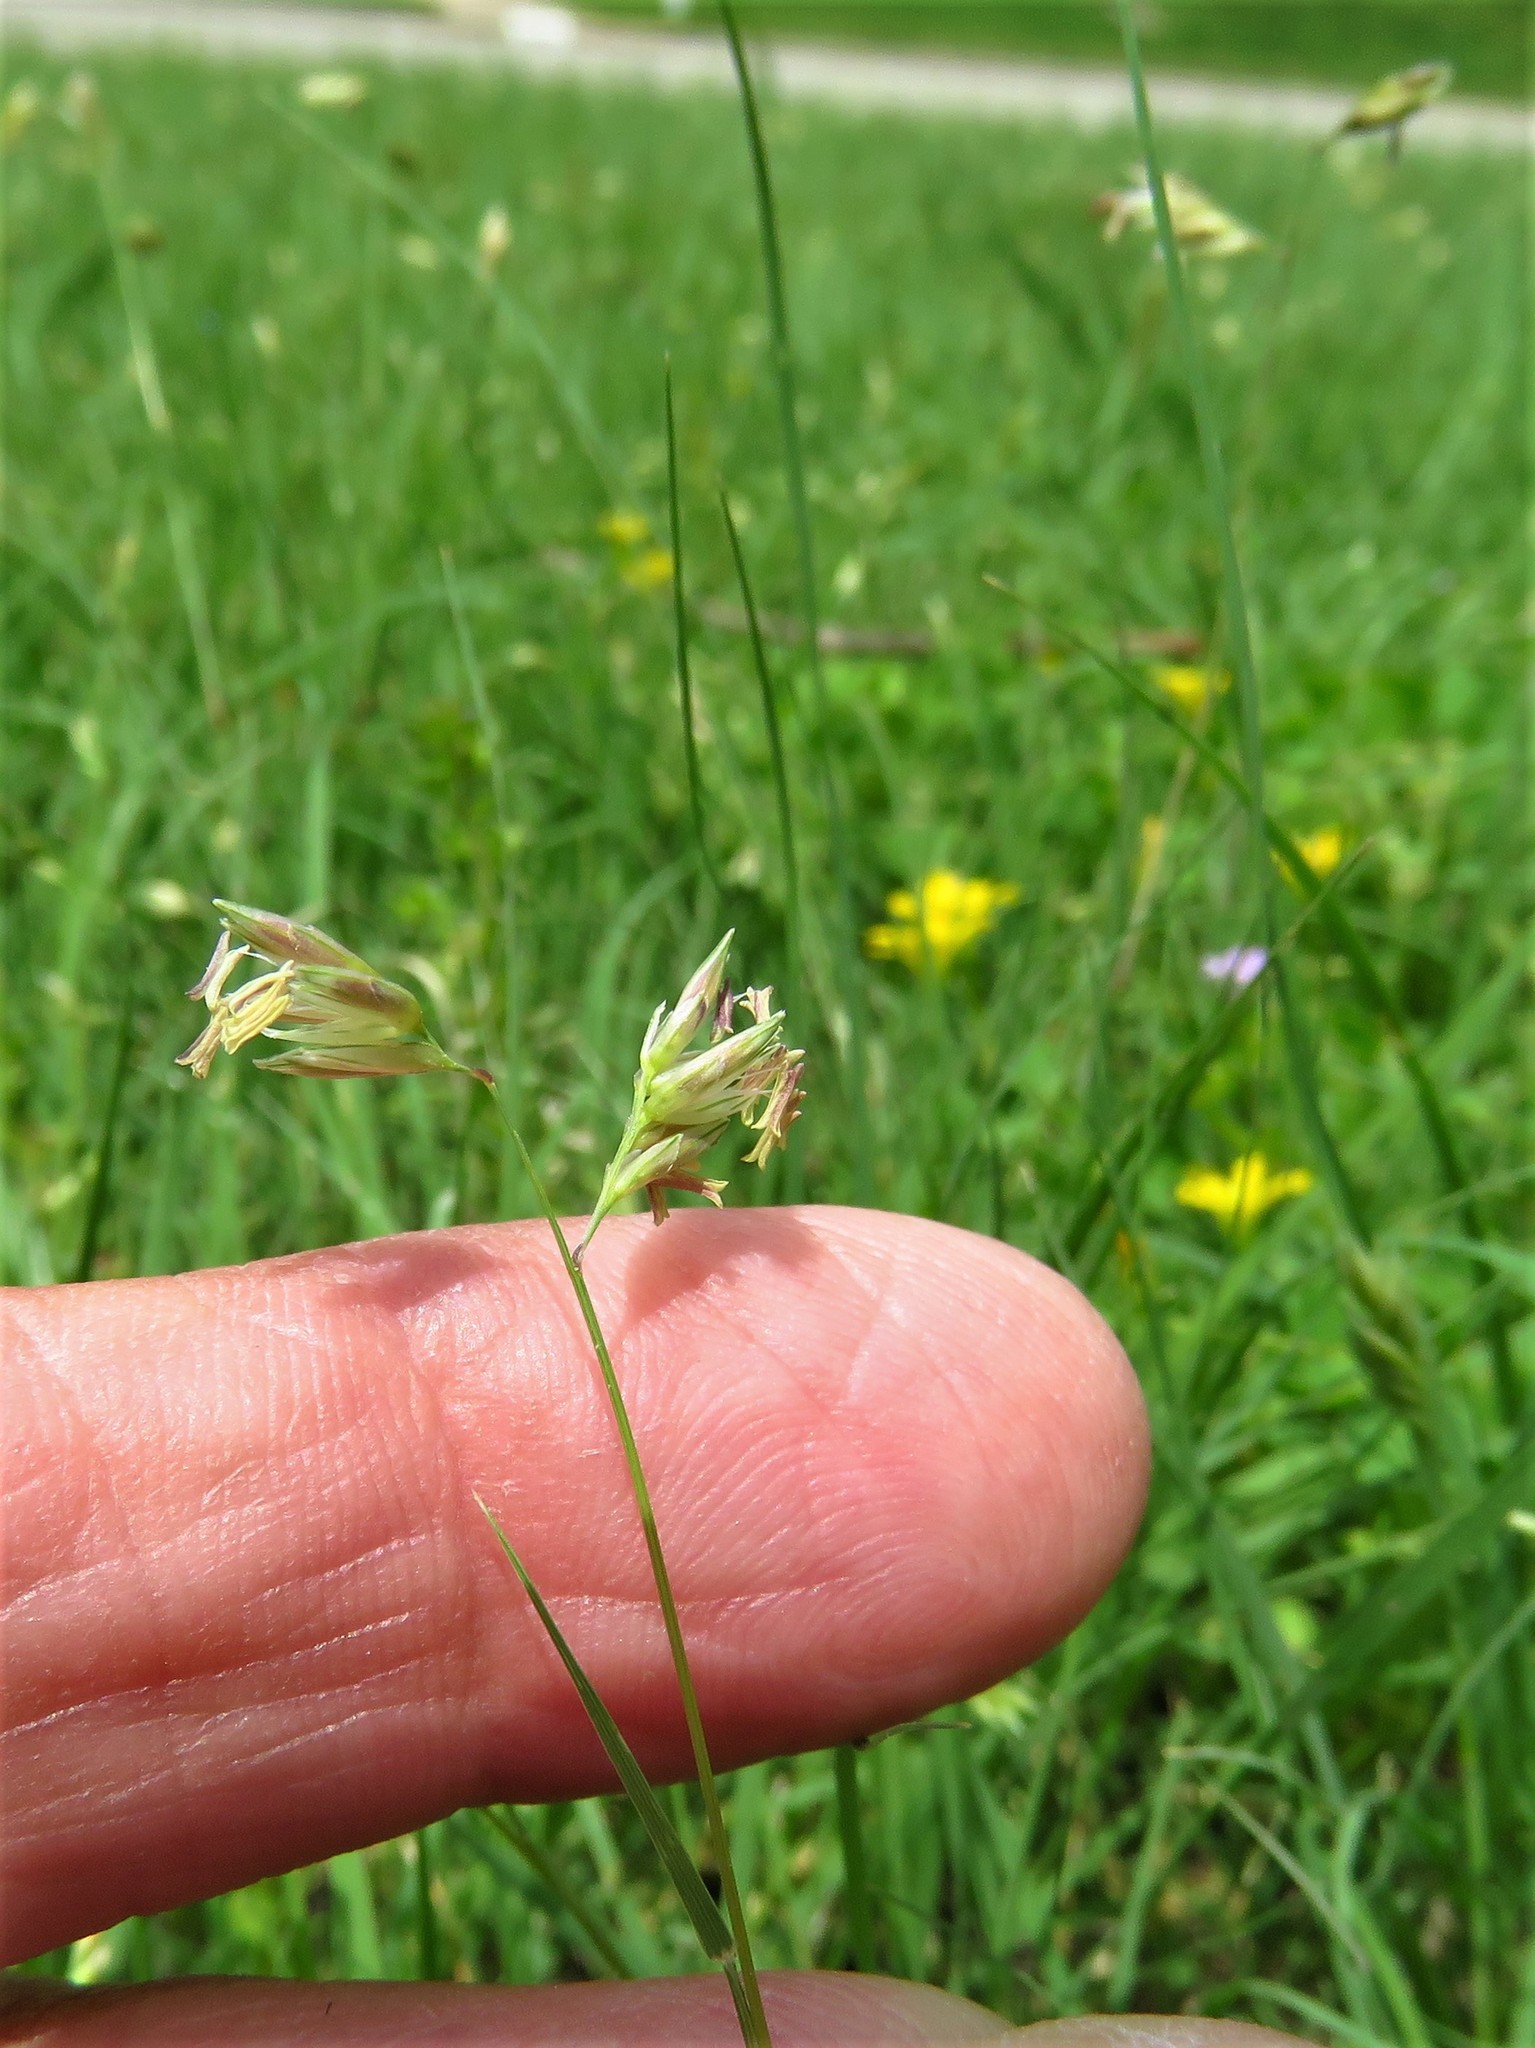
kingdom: Plantae
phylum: Tracheophyta
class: Liliopsida
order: Poales
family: Poaceae
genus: Bouteloua
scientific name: Bouteloua dactyloides
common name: Buffalo grass
